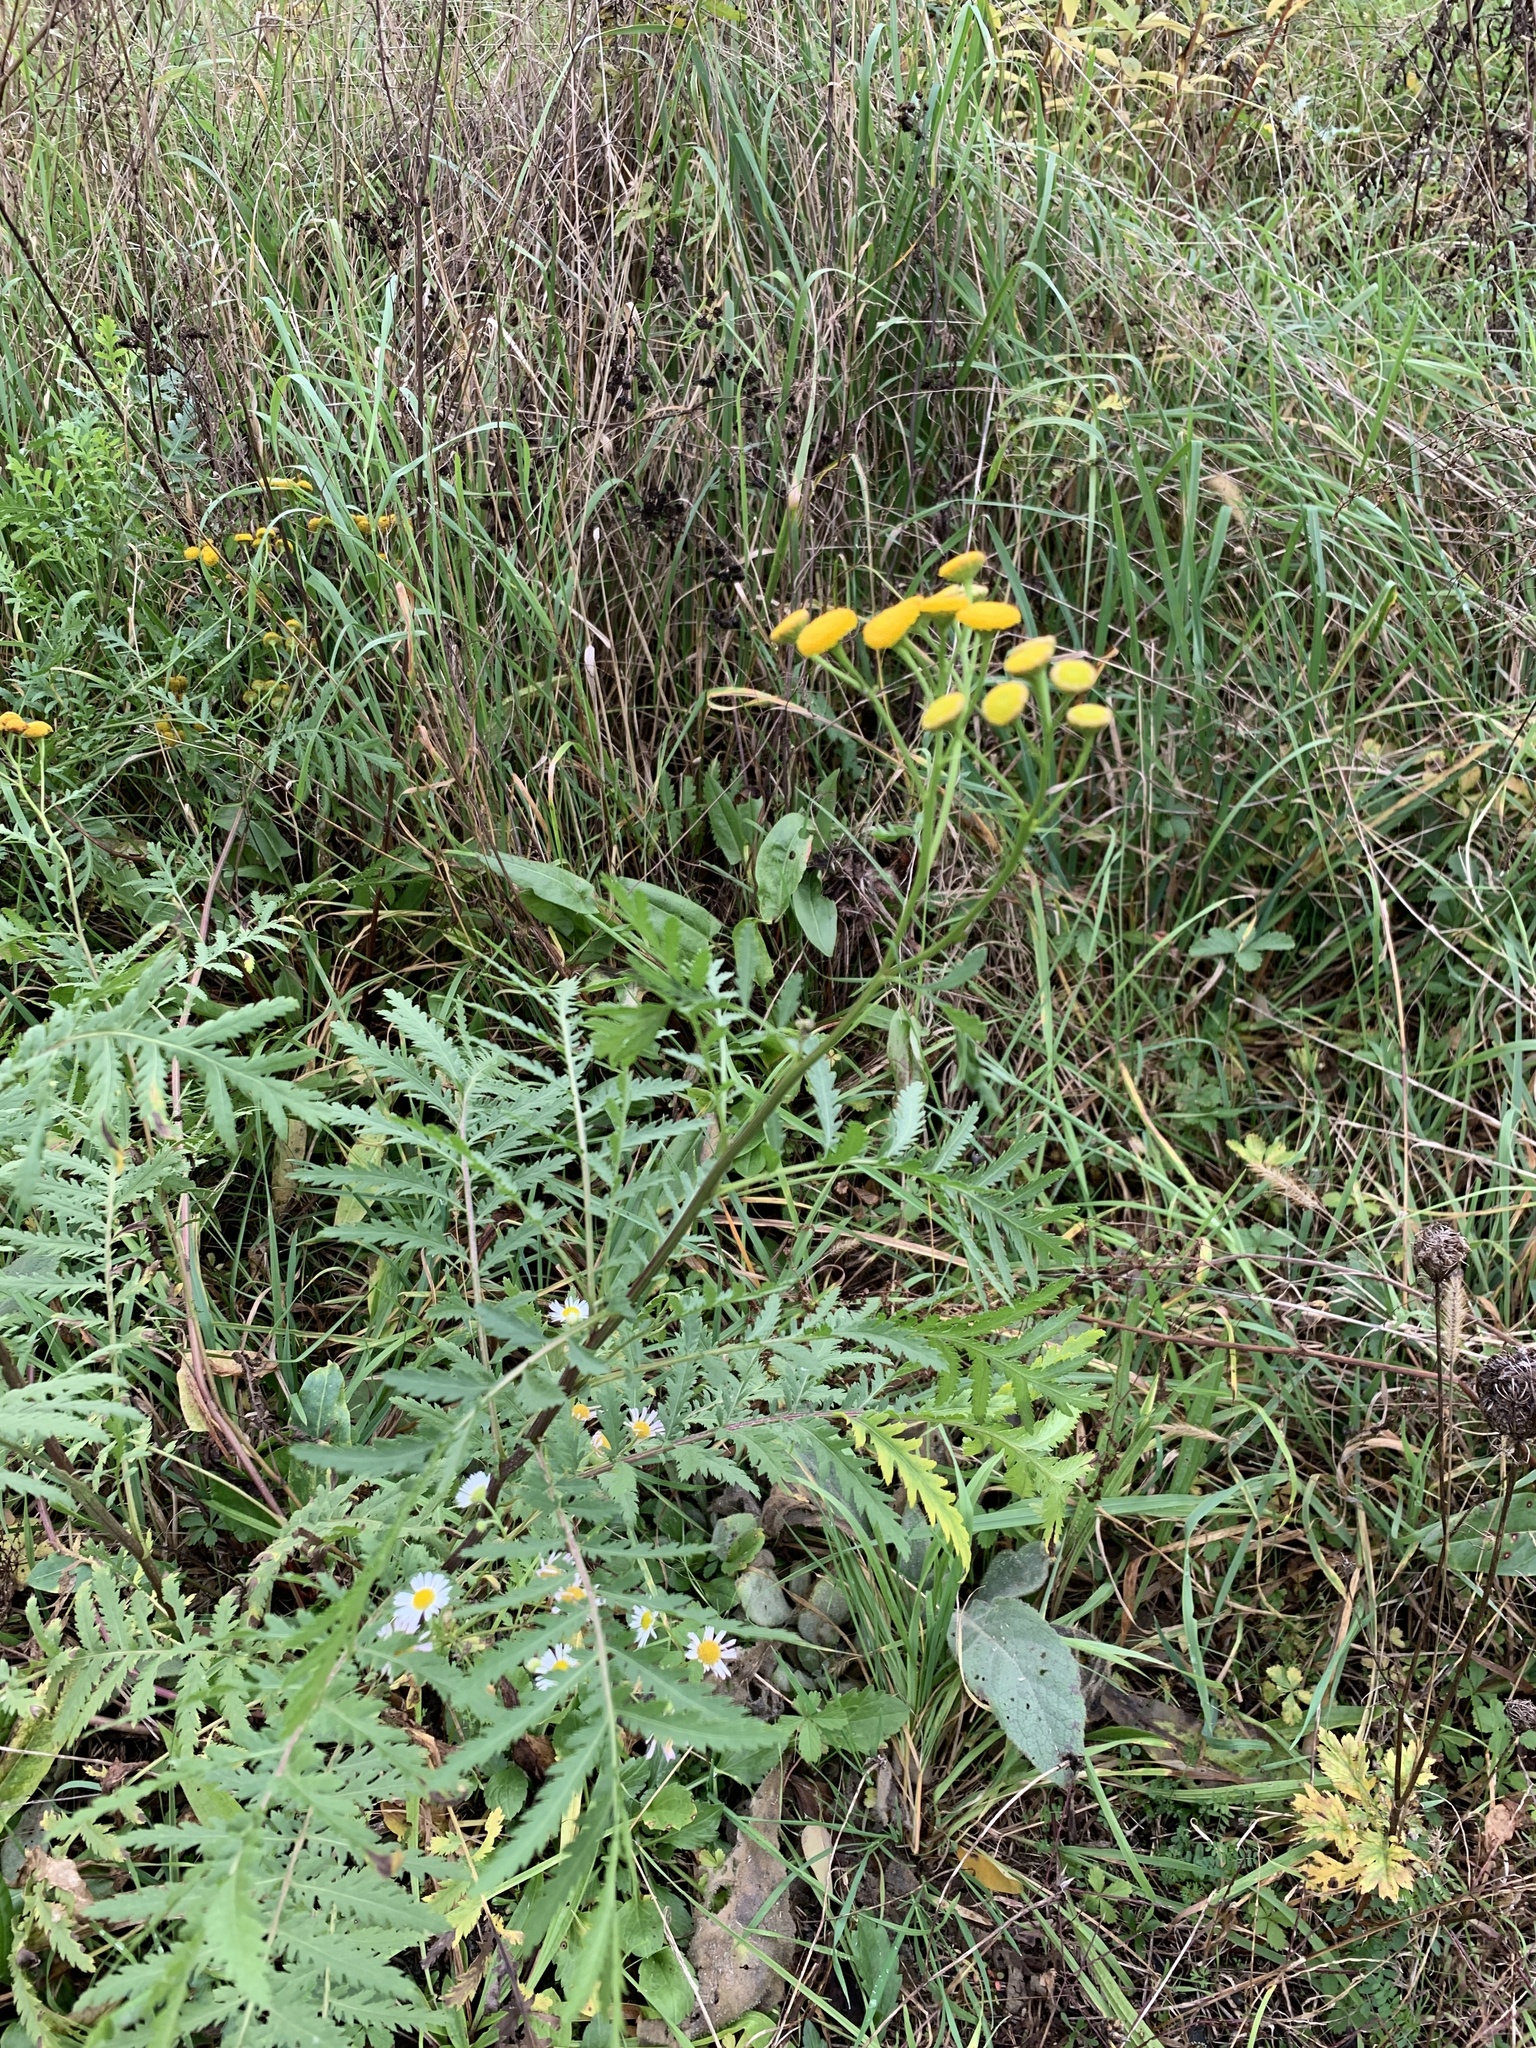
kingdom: Plantae
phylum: Tracheophyta
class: Magnoliopsida
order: Asterales
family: Asteraceae
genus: Tanacetum
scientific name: Tanacetum vulgare
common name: Common tansy
